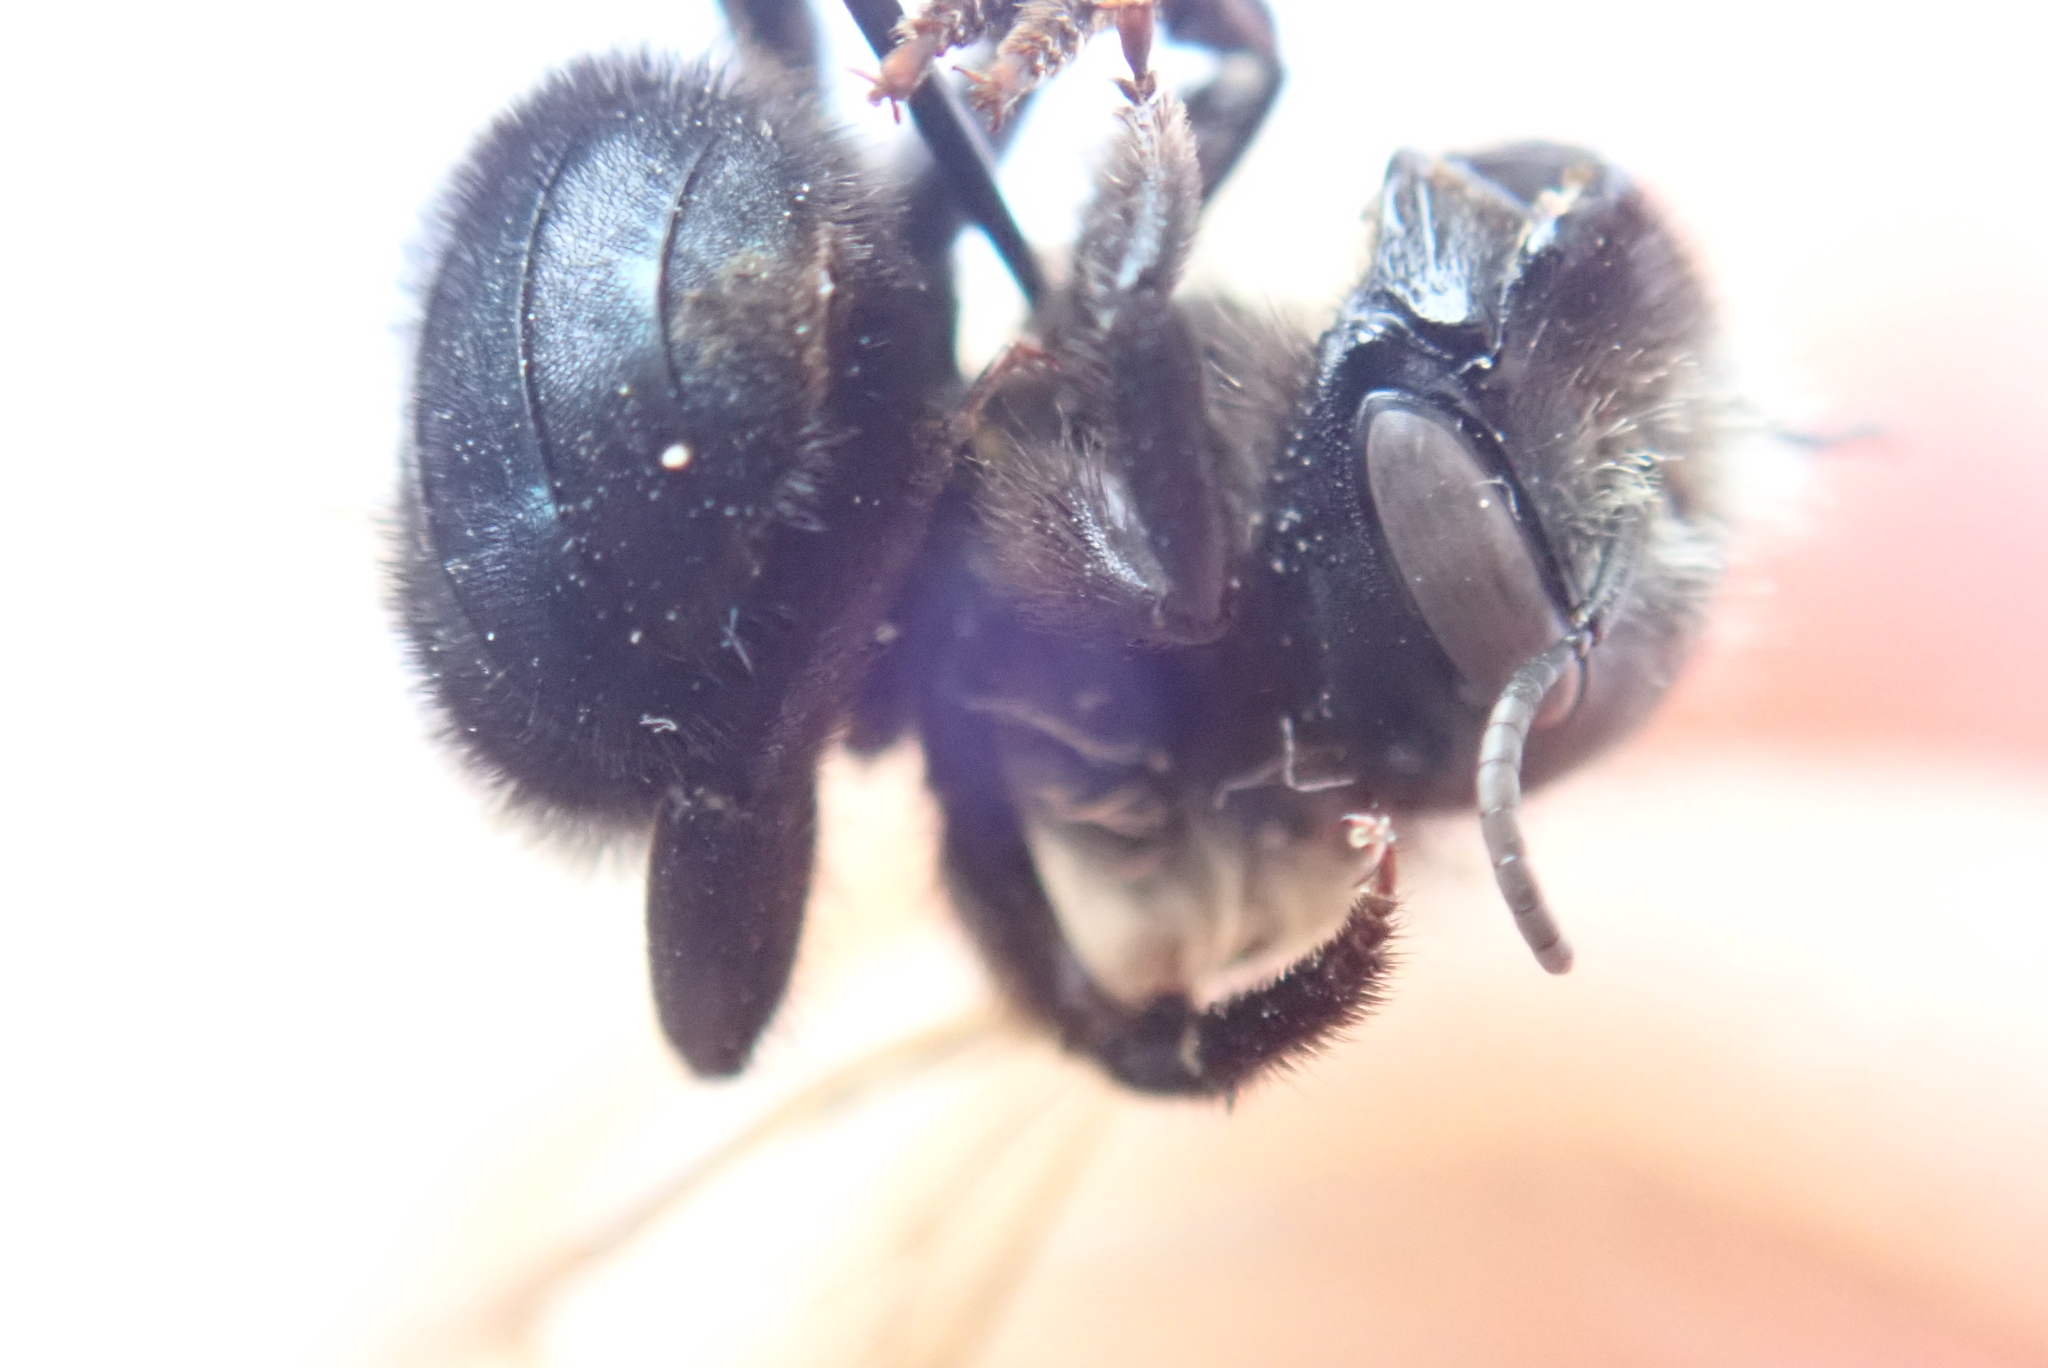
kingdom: Animalia
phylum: Arthropoda
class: Insecta
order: Hymenoptera
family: Megachilidae
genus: Osmia
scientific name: Osmia bucephala
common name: Bufflehead mason bee
